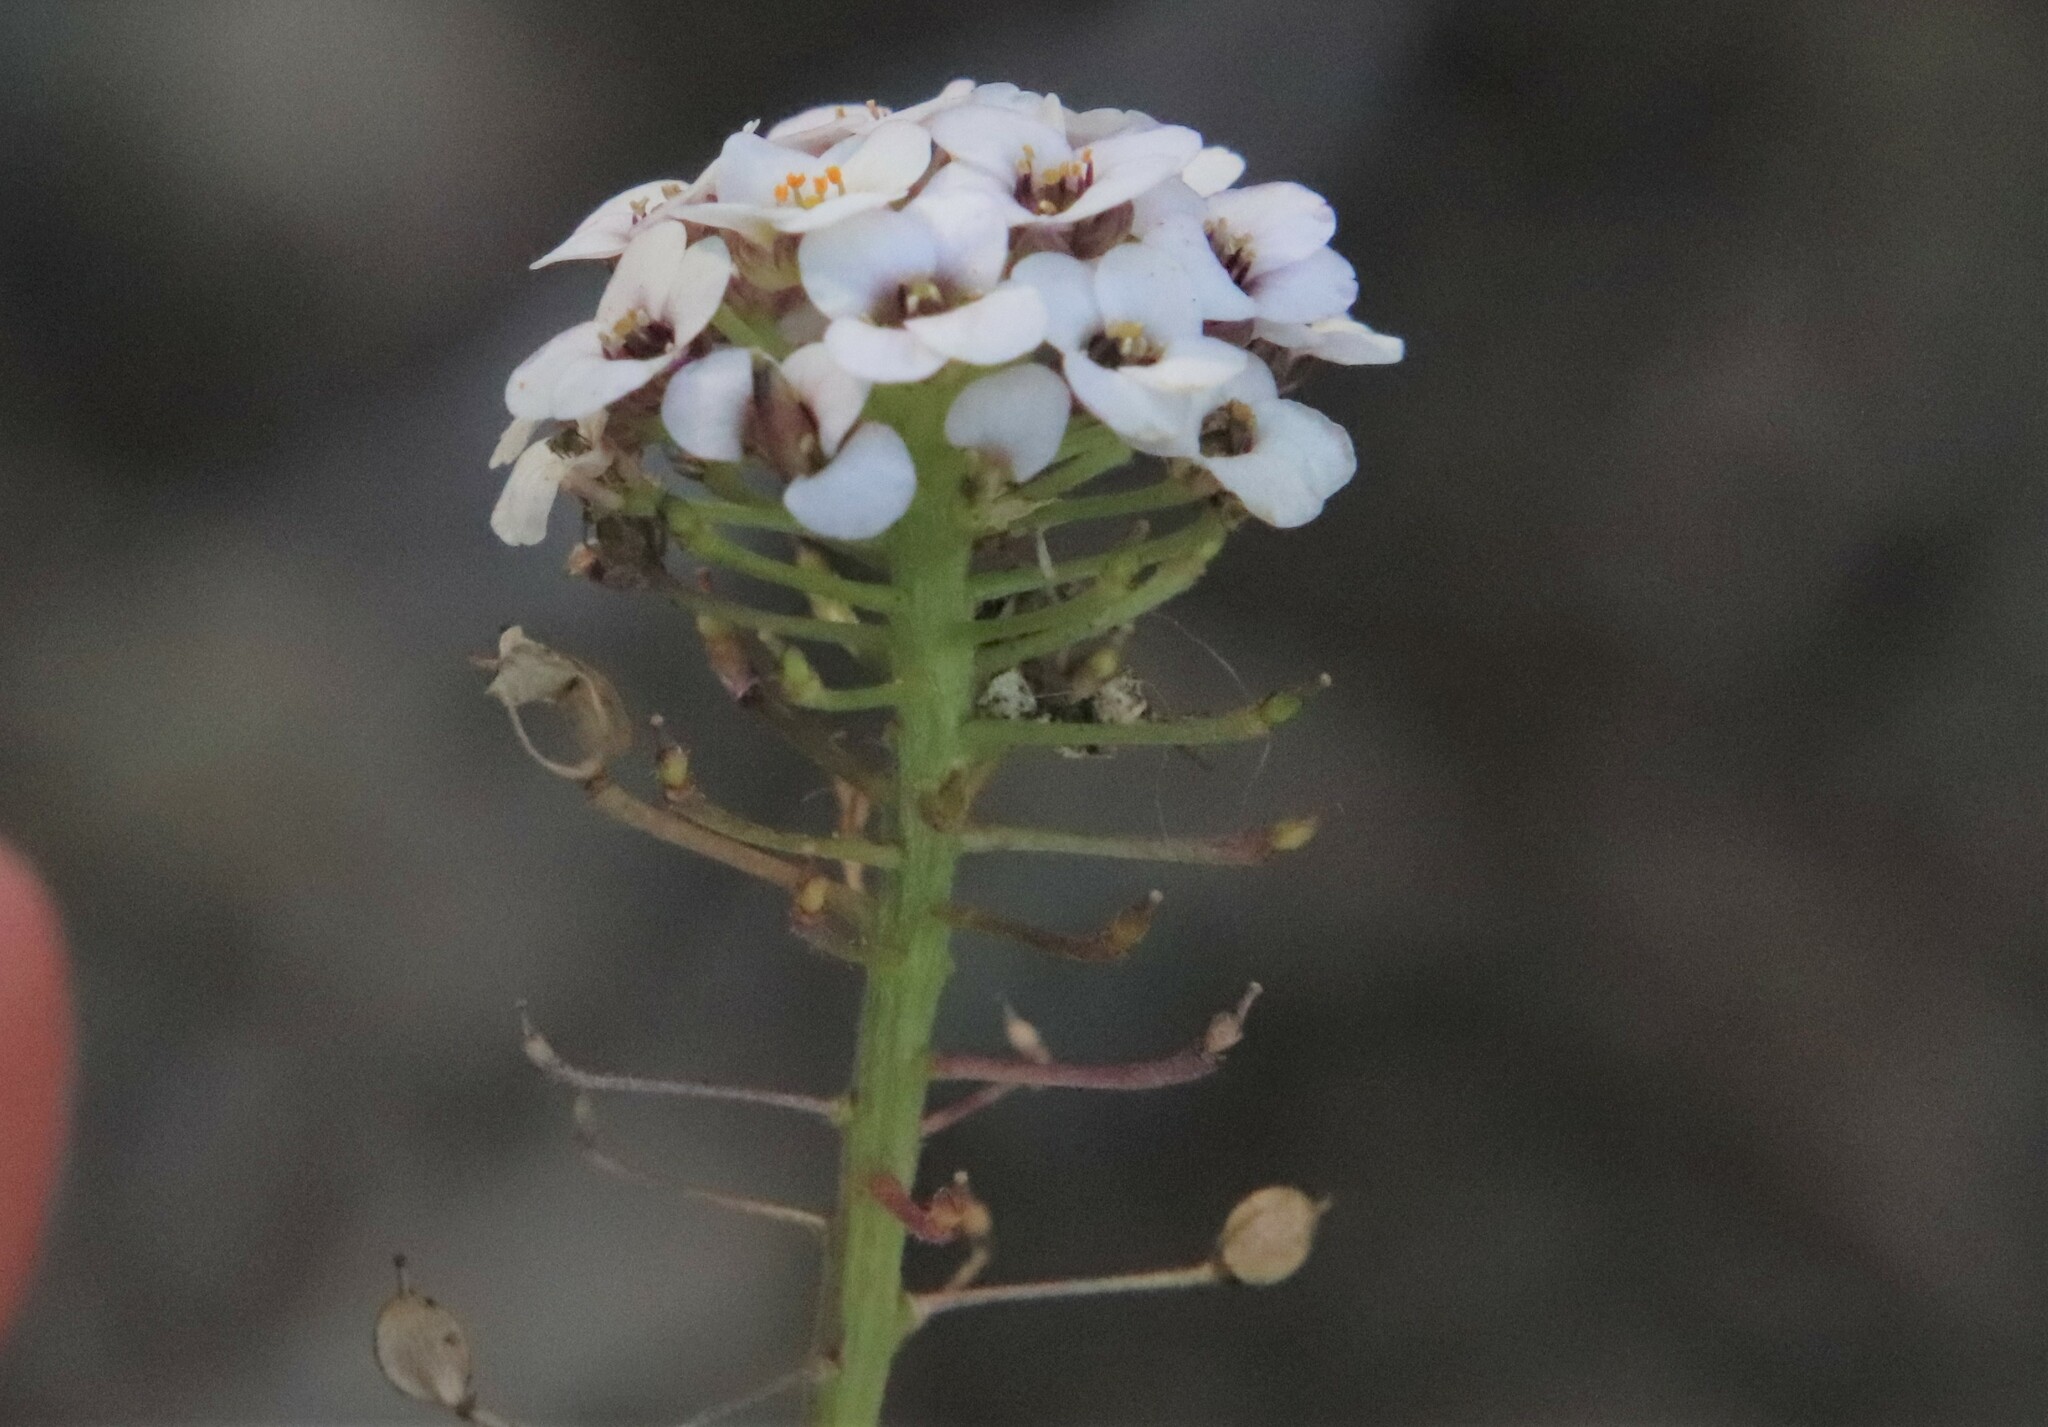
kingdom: Plantae
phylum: Tracheophyta
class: Magnoliopsida
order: Brassicales
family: Brassicaceae
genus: Lobularia
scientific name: Lobularia maritima
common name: Sweet alison
